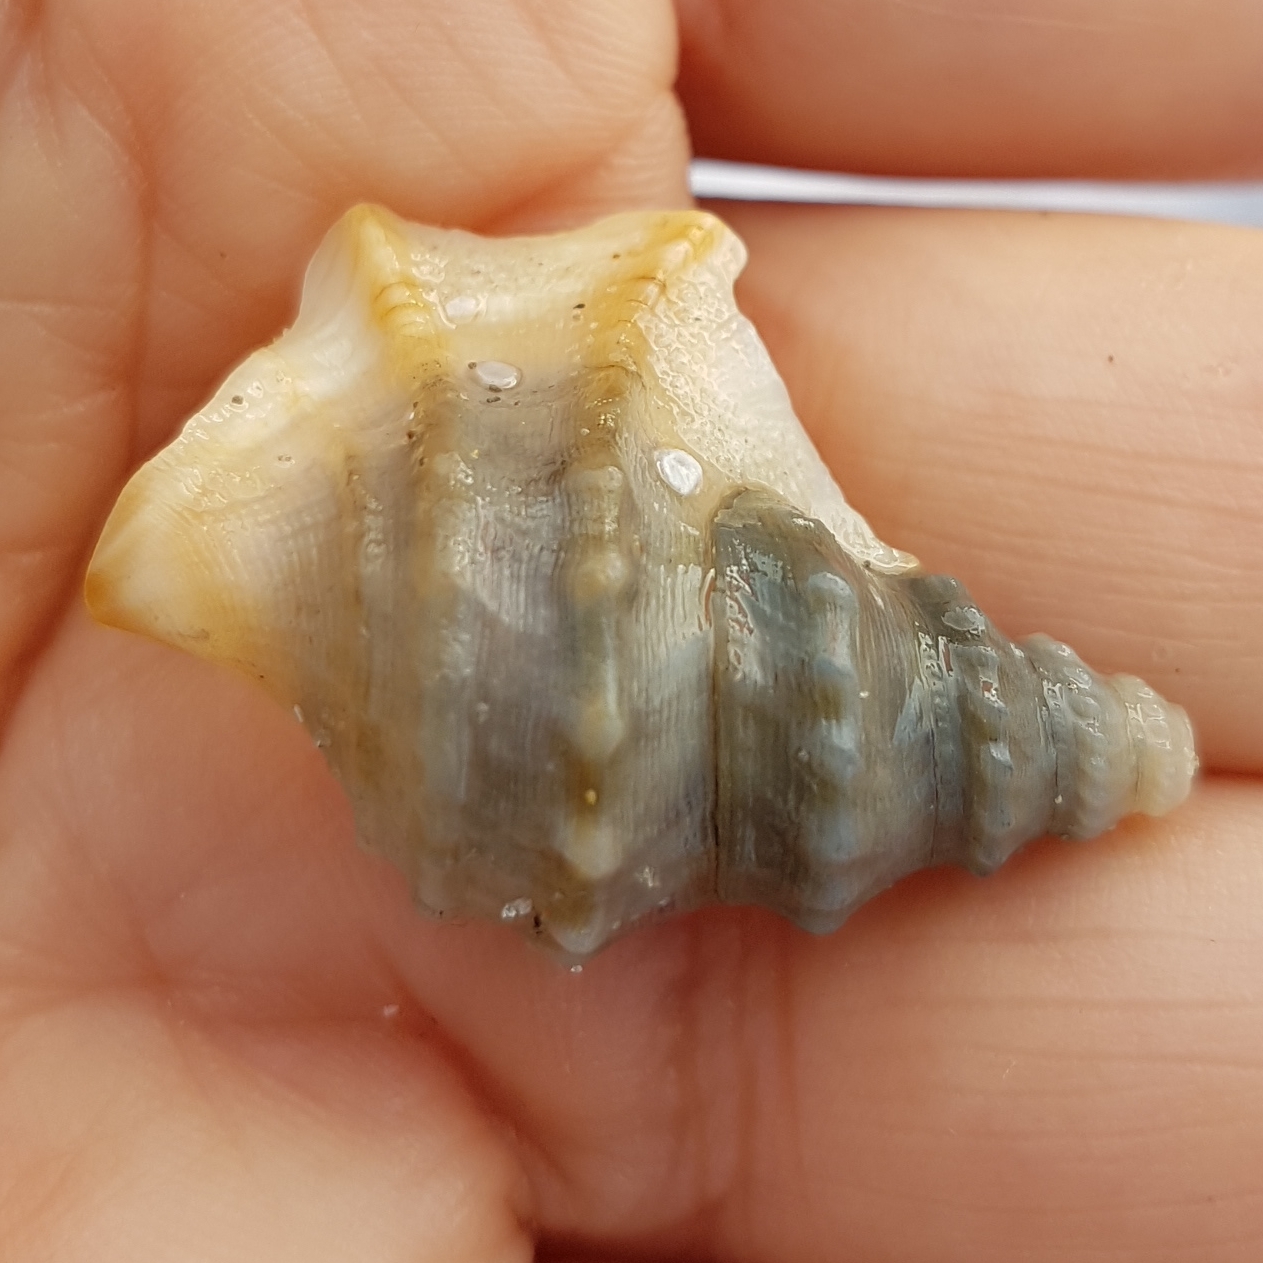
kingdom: Animalia
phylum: Mollusca
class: Gastropoda
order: Littorinimorpha
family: Aporrhaidae
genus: Aporrhais
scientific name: Aporrhais pespelecani
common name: Common pelican’s foot
